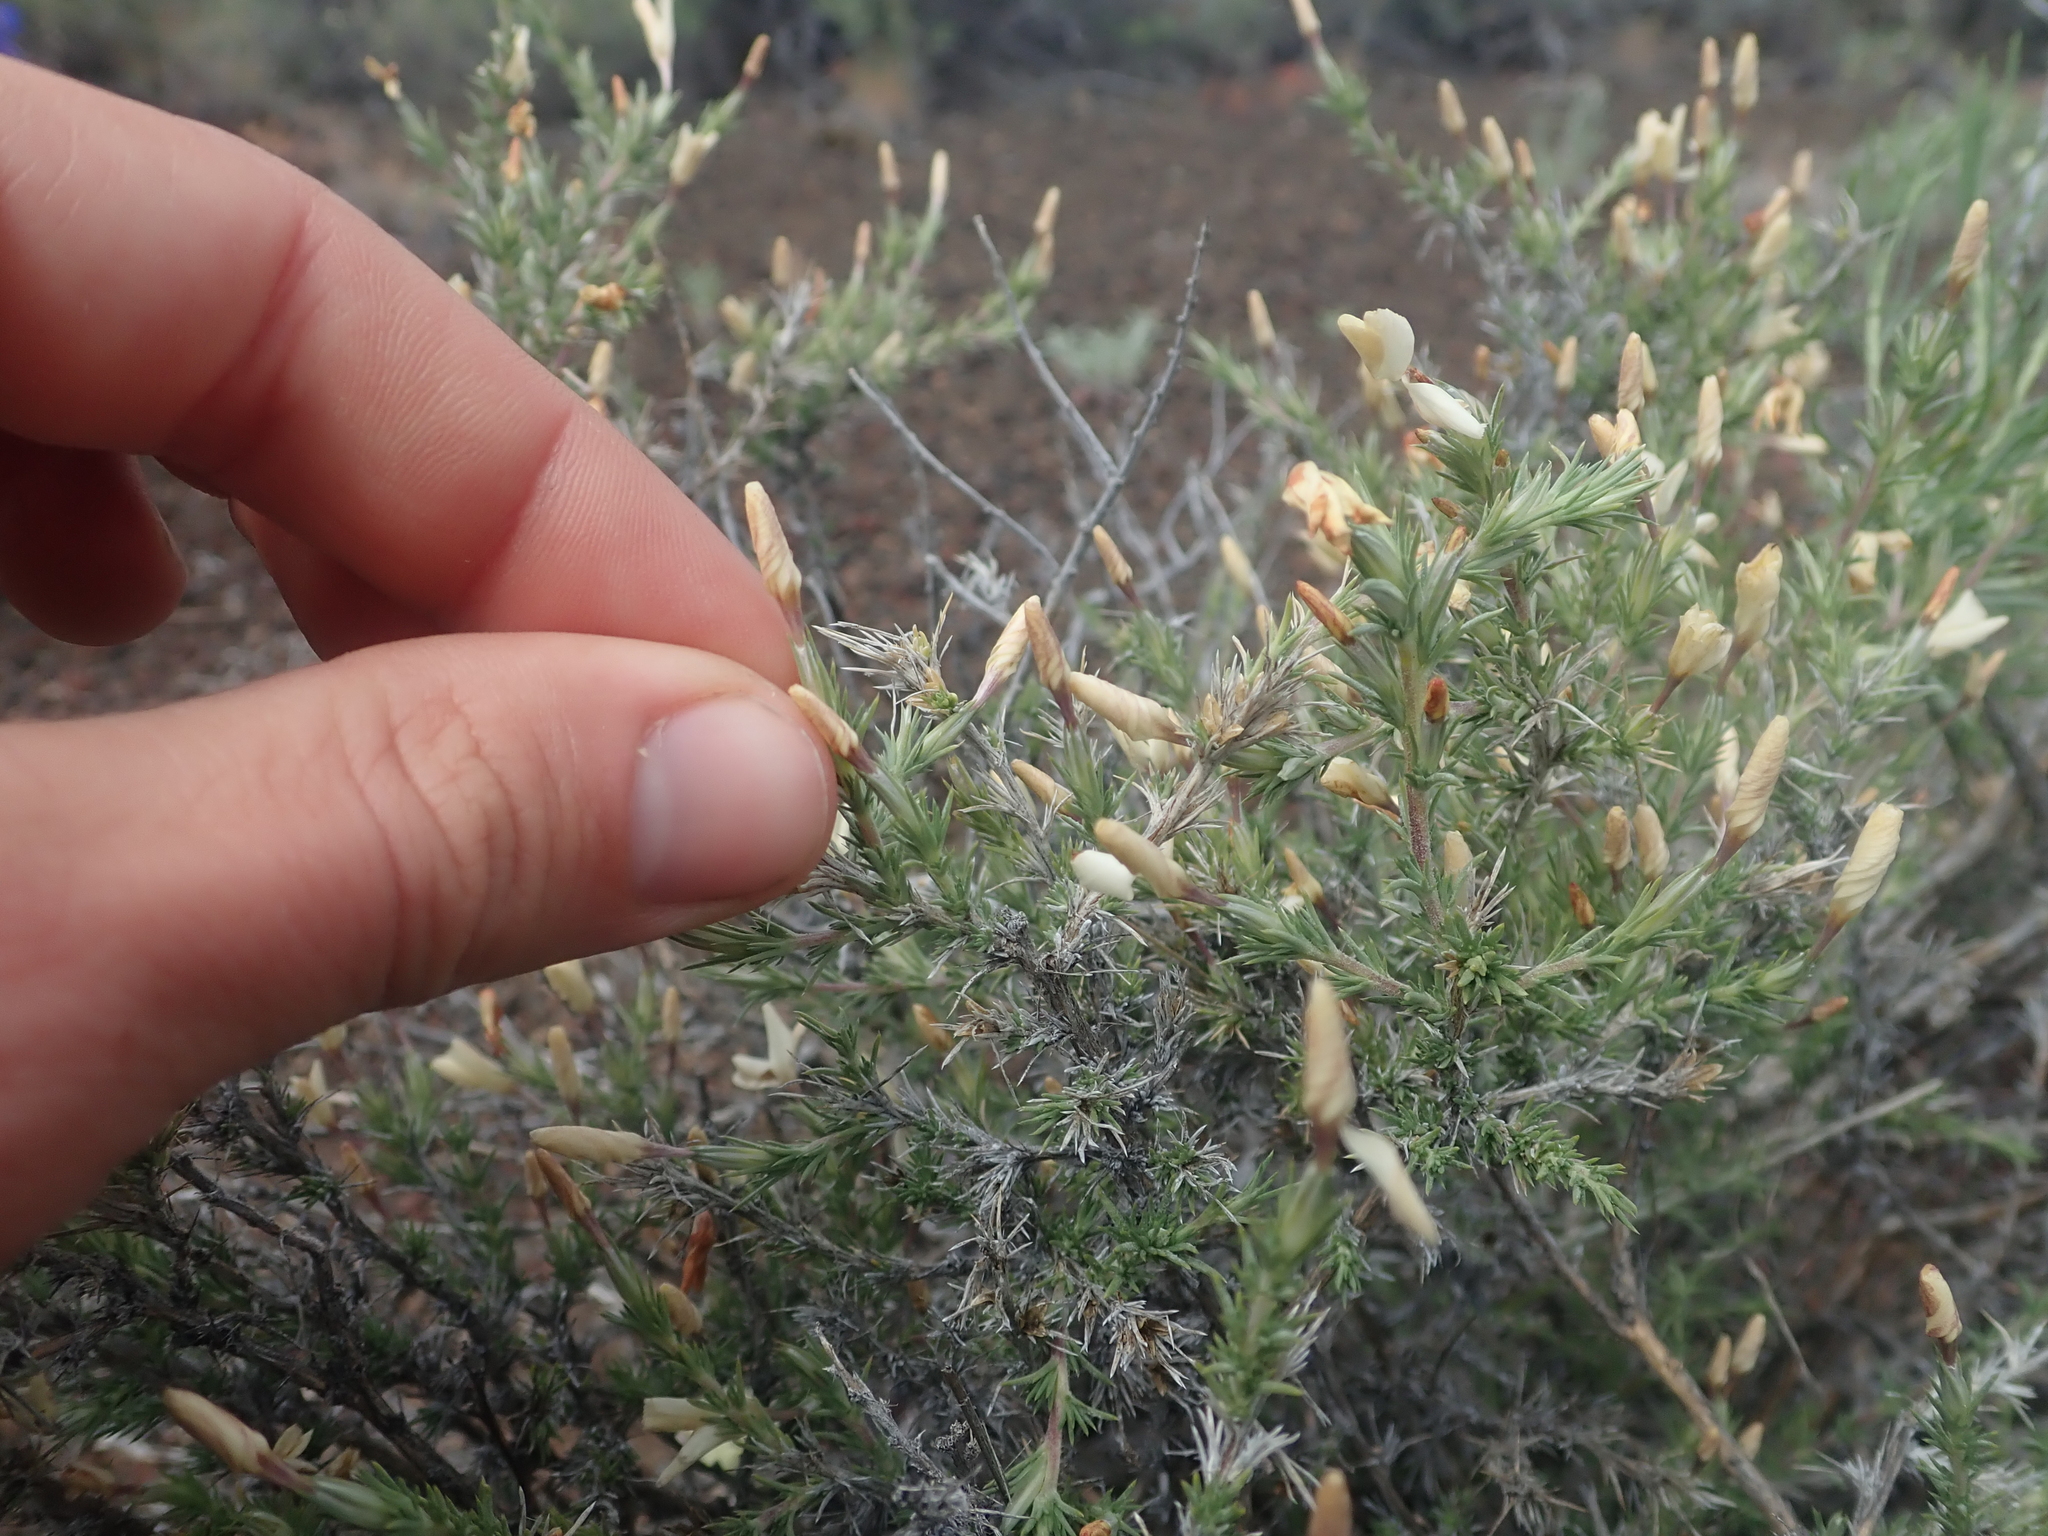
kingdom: Plantae
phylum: Tracheophyta
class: Magnoliopsida
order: Ericales
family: Polemoniaceae
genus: Linanthus
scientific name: Linanthus pungens
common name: Granite prickly phlox
